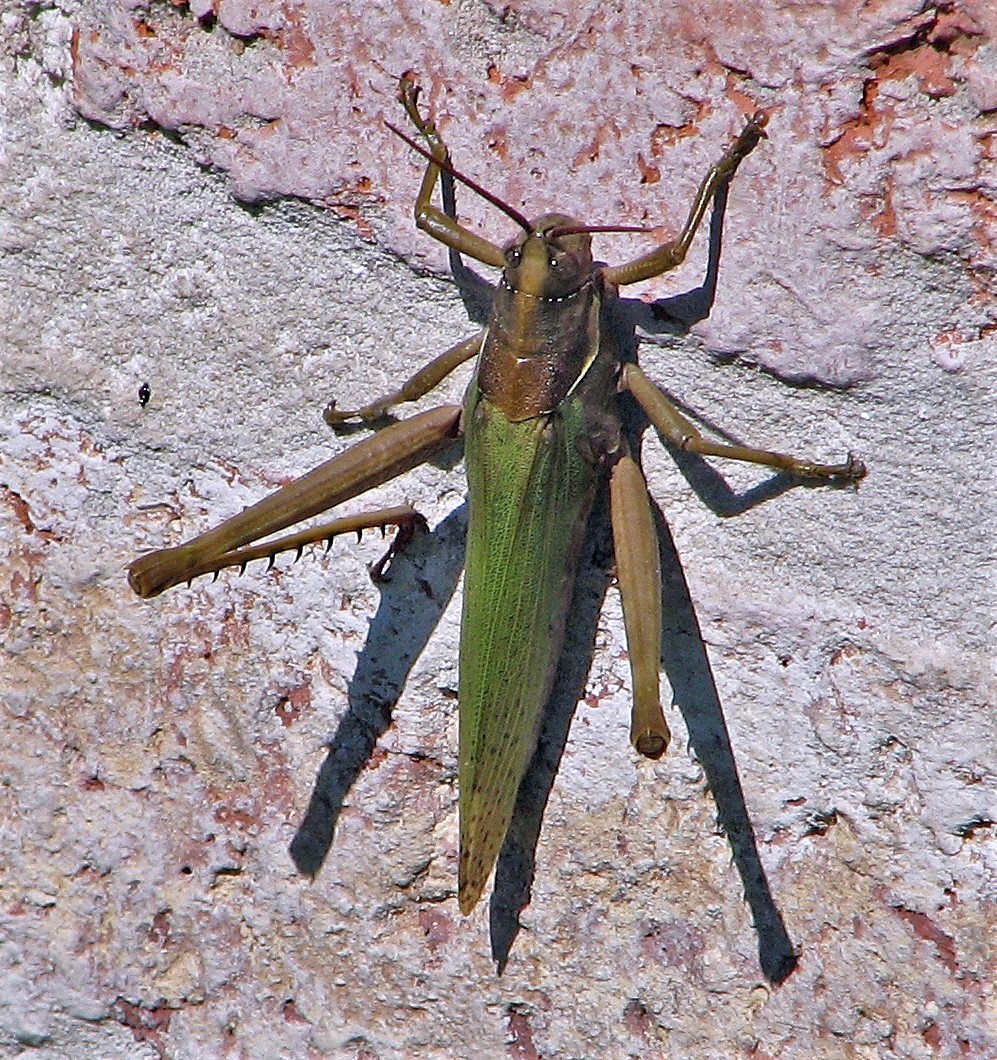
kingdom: Animalia
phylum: Arthropoda
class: Insecta
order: Orthoptera
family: Romaleidae
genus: Coryacris
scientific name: Coryacris angustipennis
